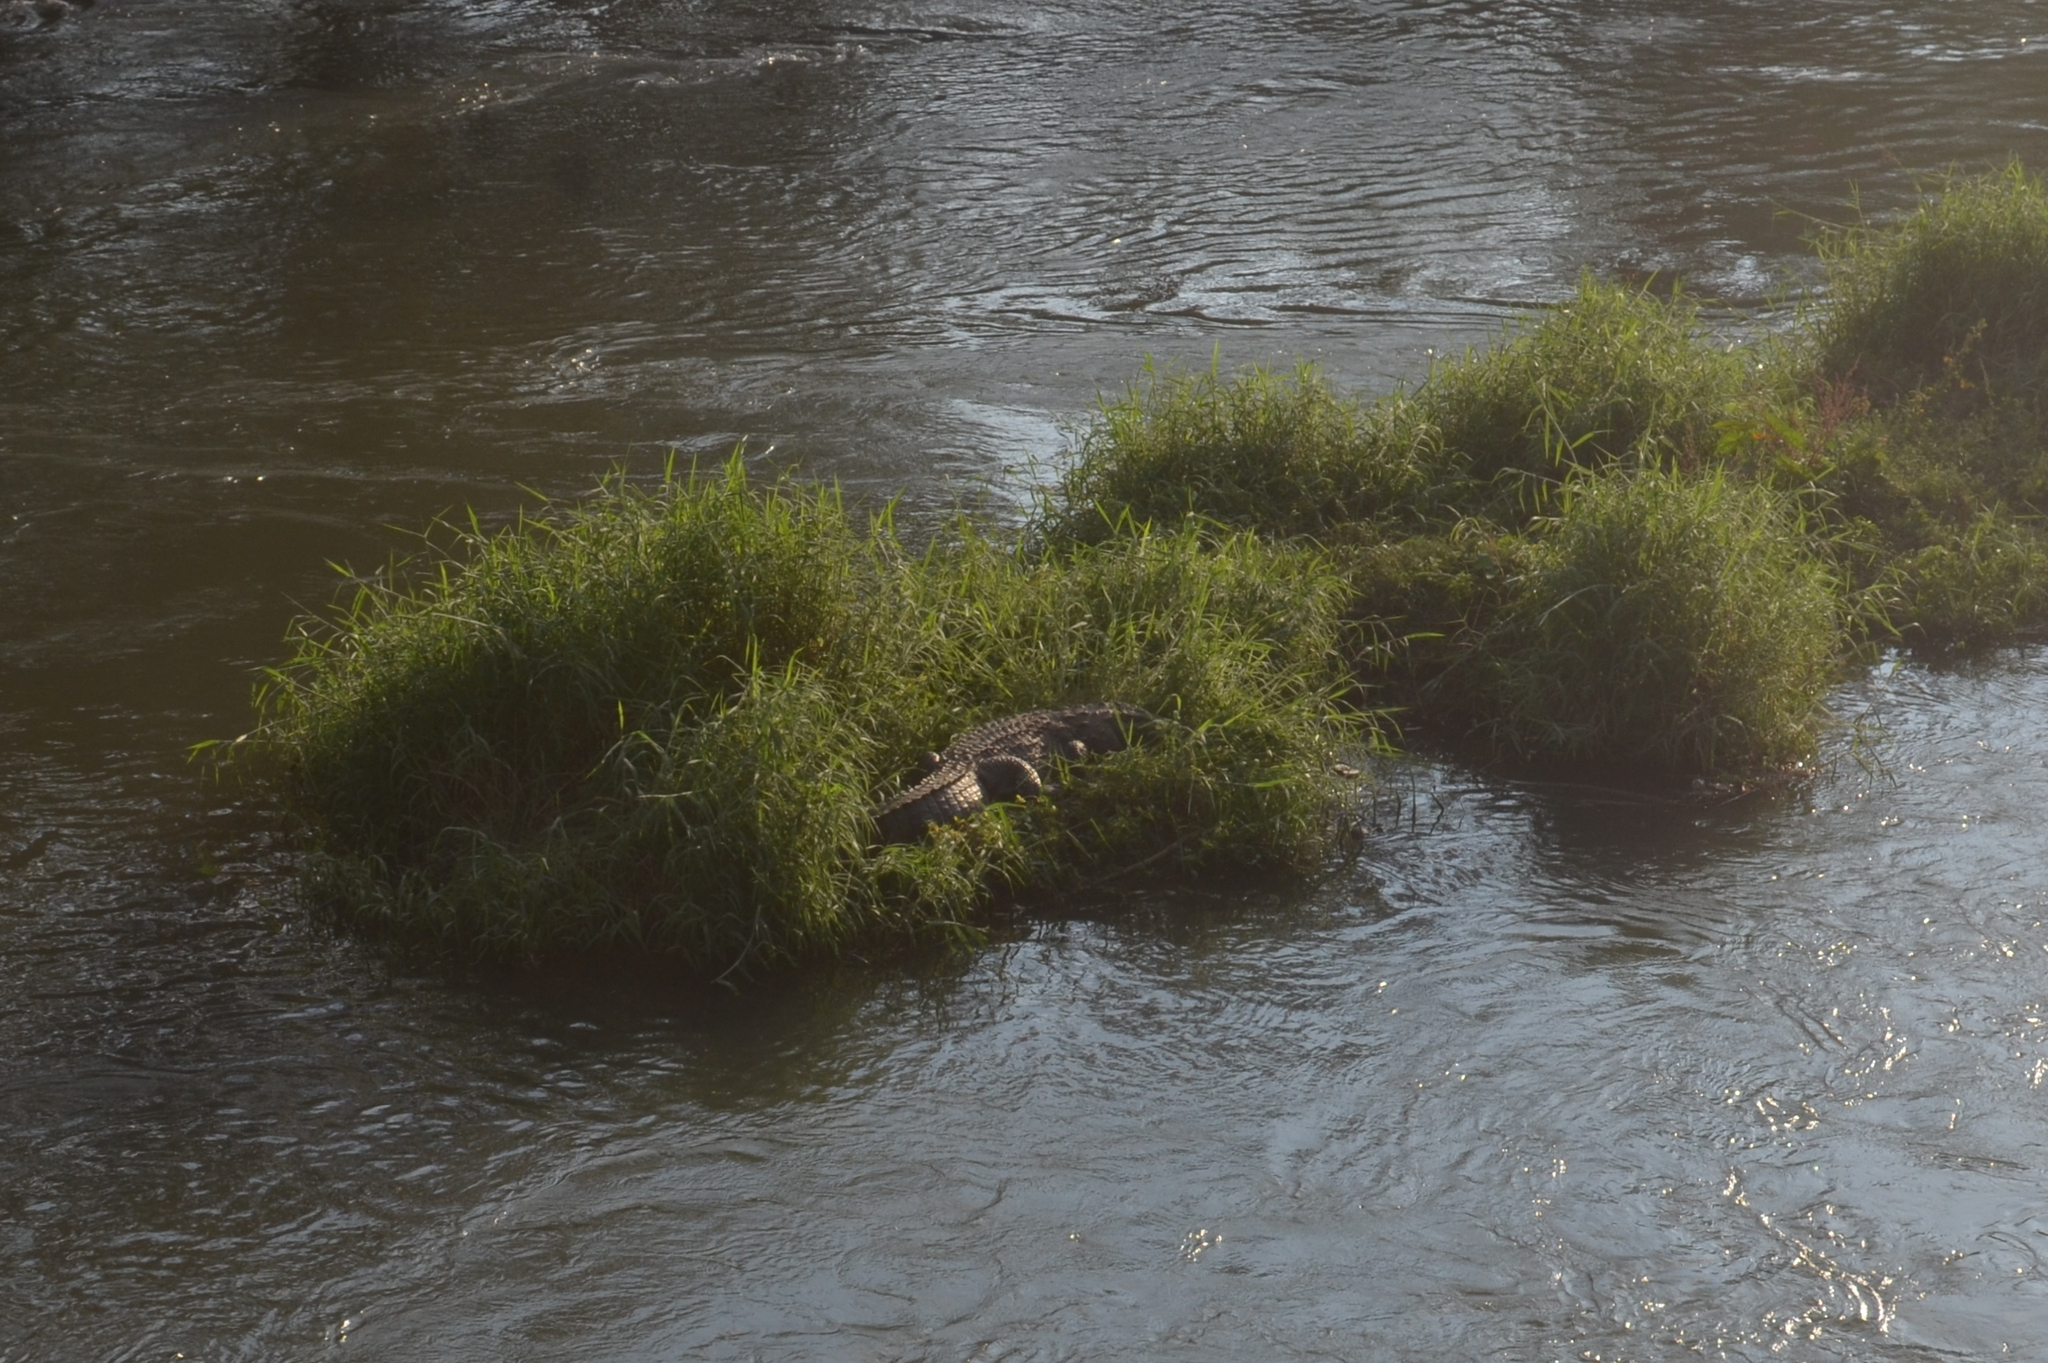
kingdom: Animalia
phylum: Chordata
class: Crocodylia
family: Crocodylidae
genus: Crocodylus
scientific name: Crocodylus palustris
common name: Mugger crocodile
